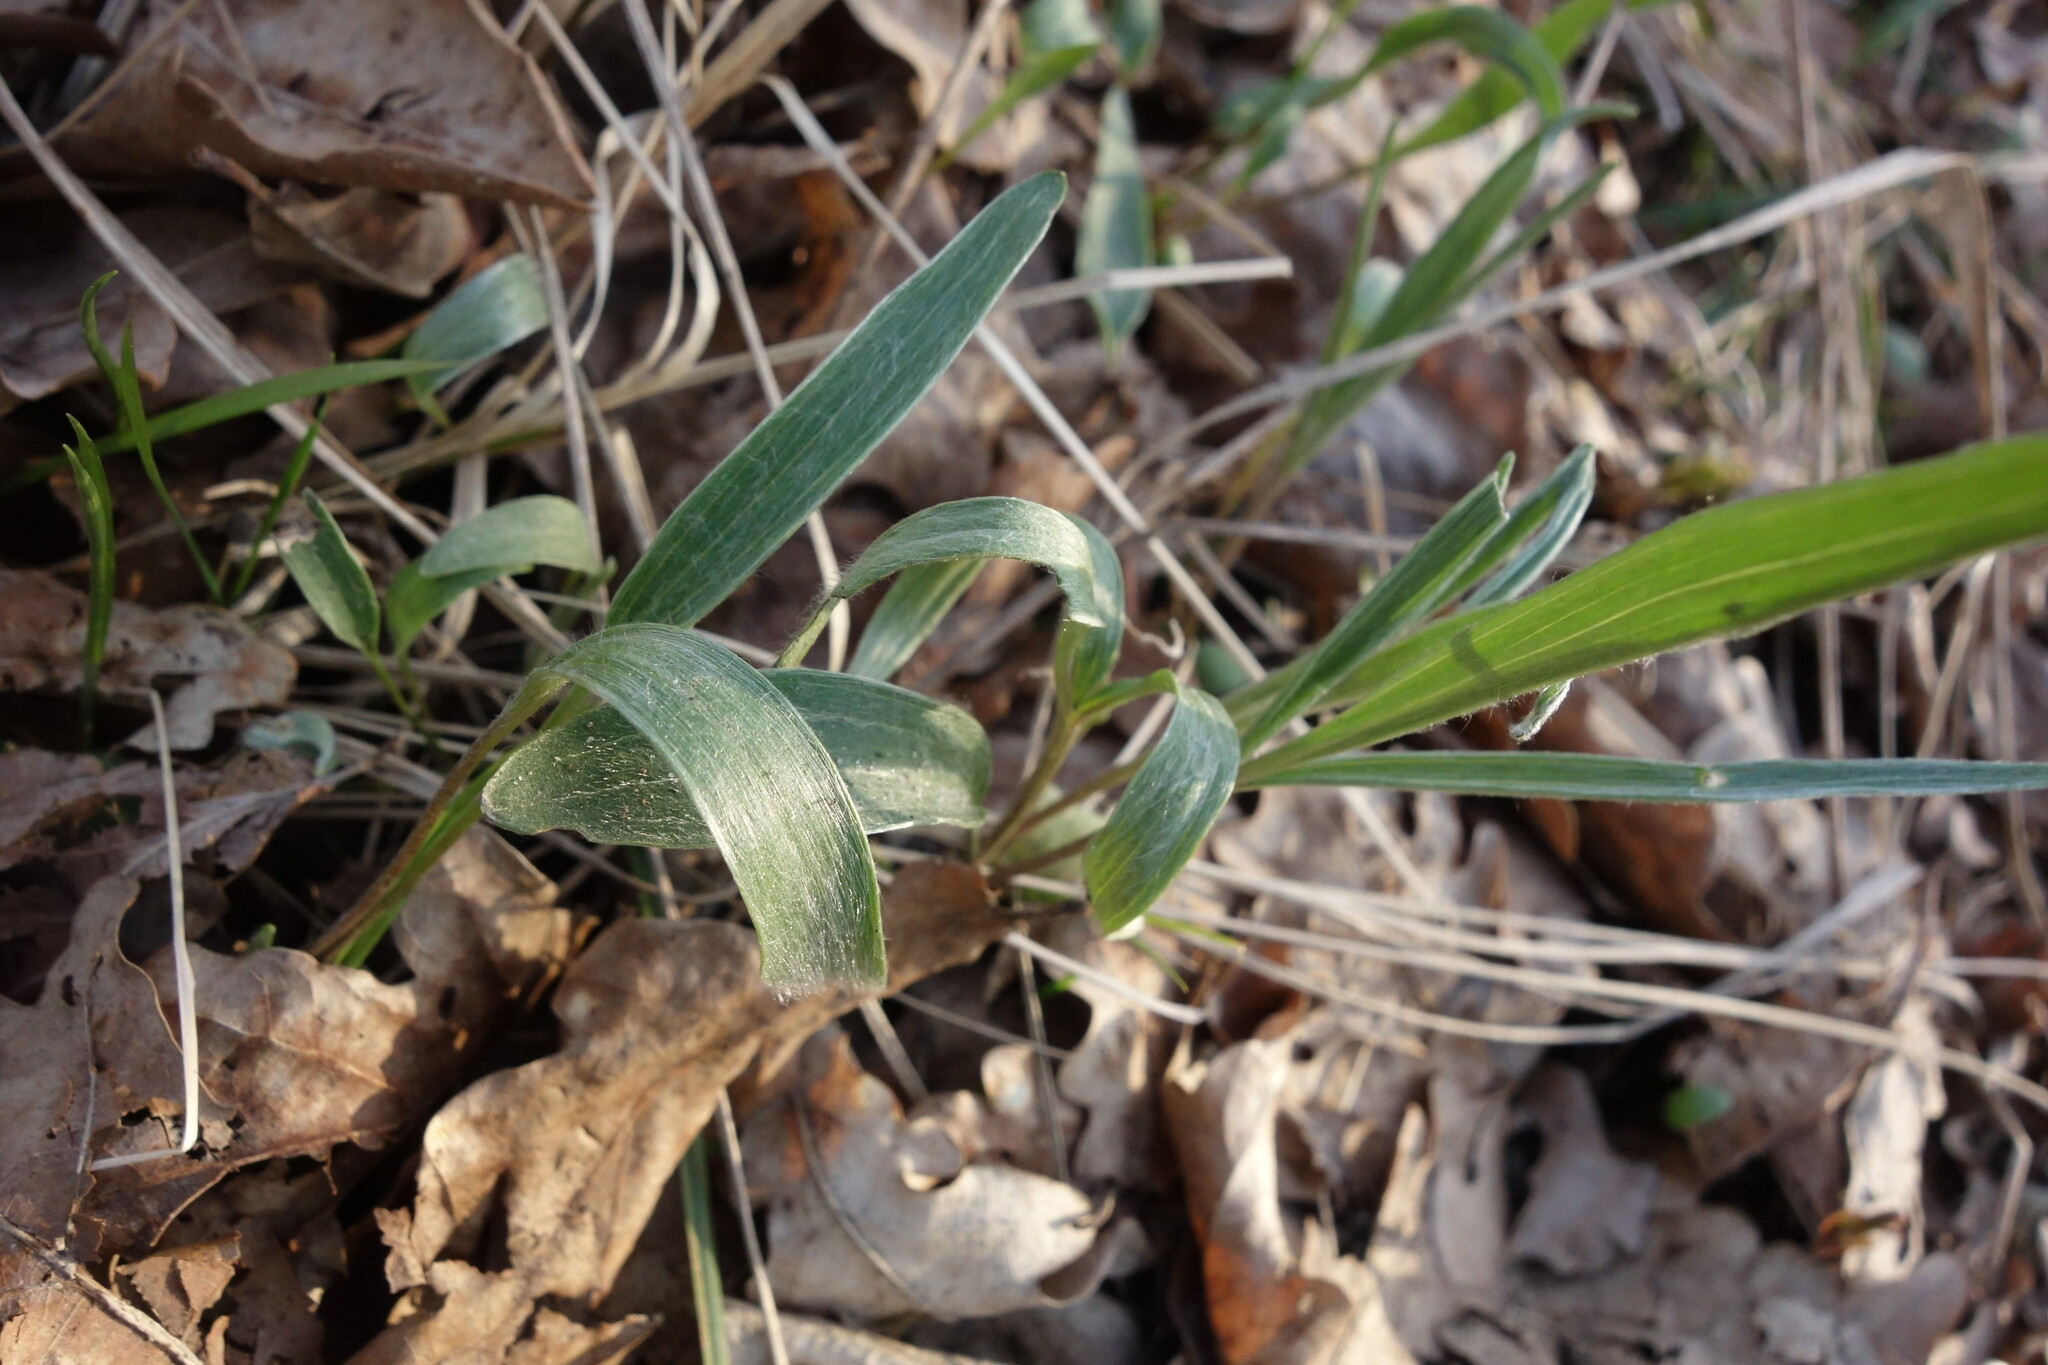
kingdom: Plantae
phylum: Tracheophyta
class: Magnoliopsida
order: Ranunculales
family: Ranunculaceae
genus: Ranunculus
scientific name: Ranunculus illyricus
